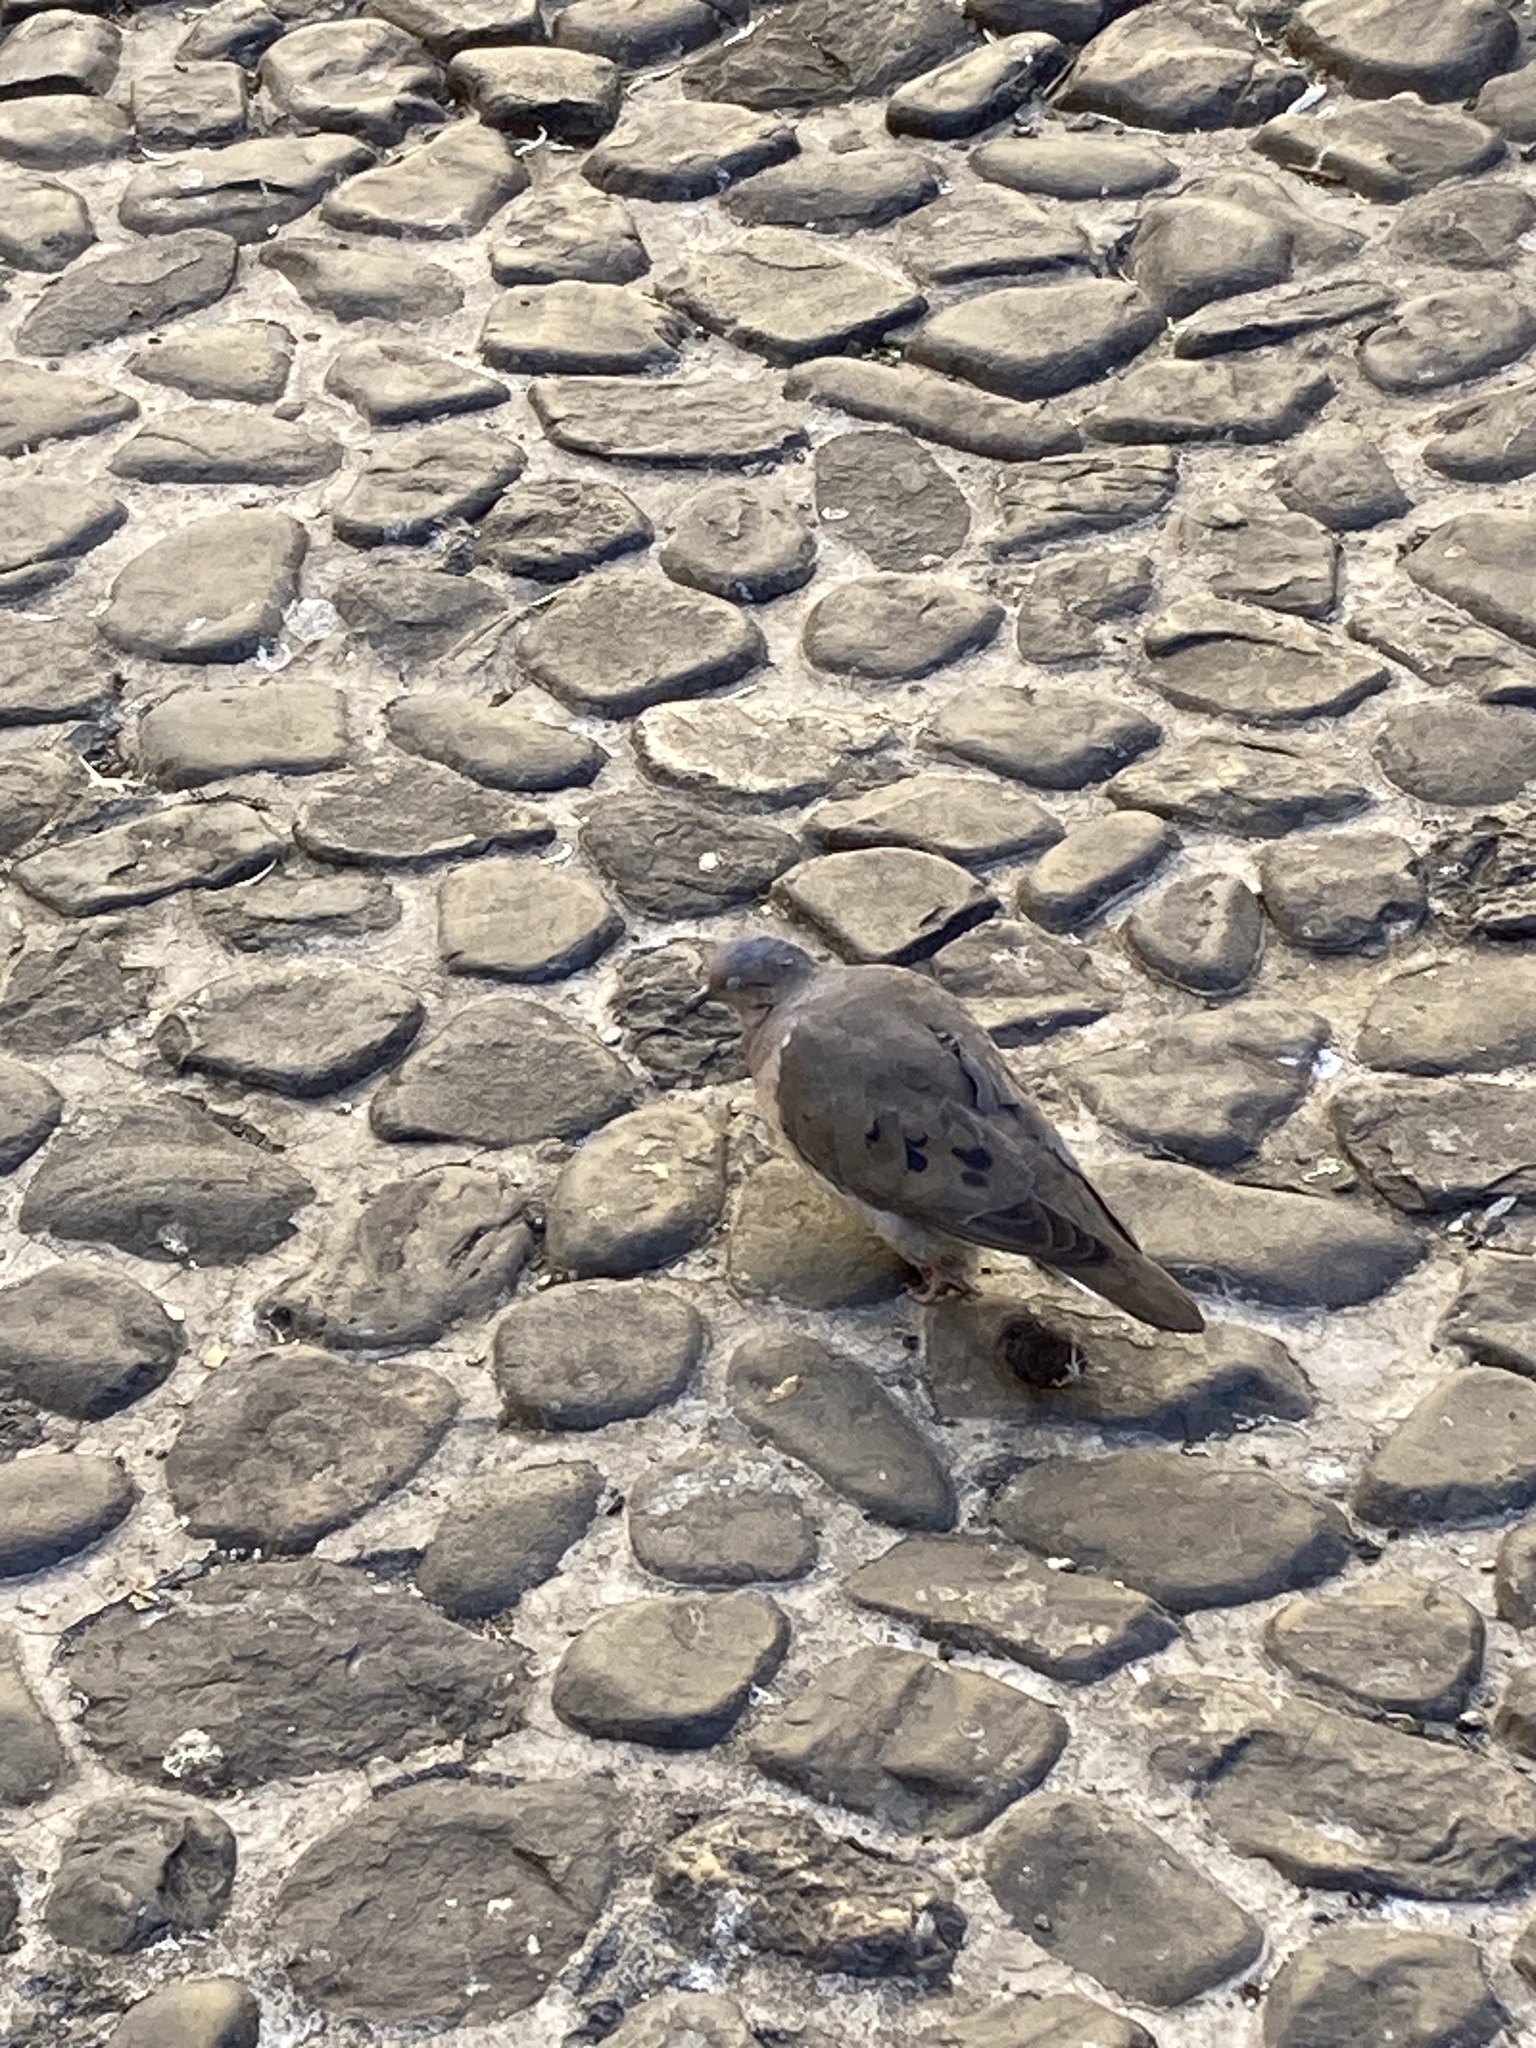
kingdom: Animalia
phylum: Chordata
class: Aves
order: Columbiformes
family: Columbidae
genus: Zenaida
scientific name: Zenaida auriculata
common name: Eared dove
